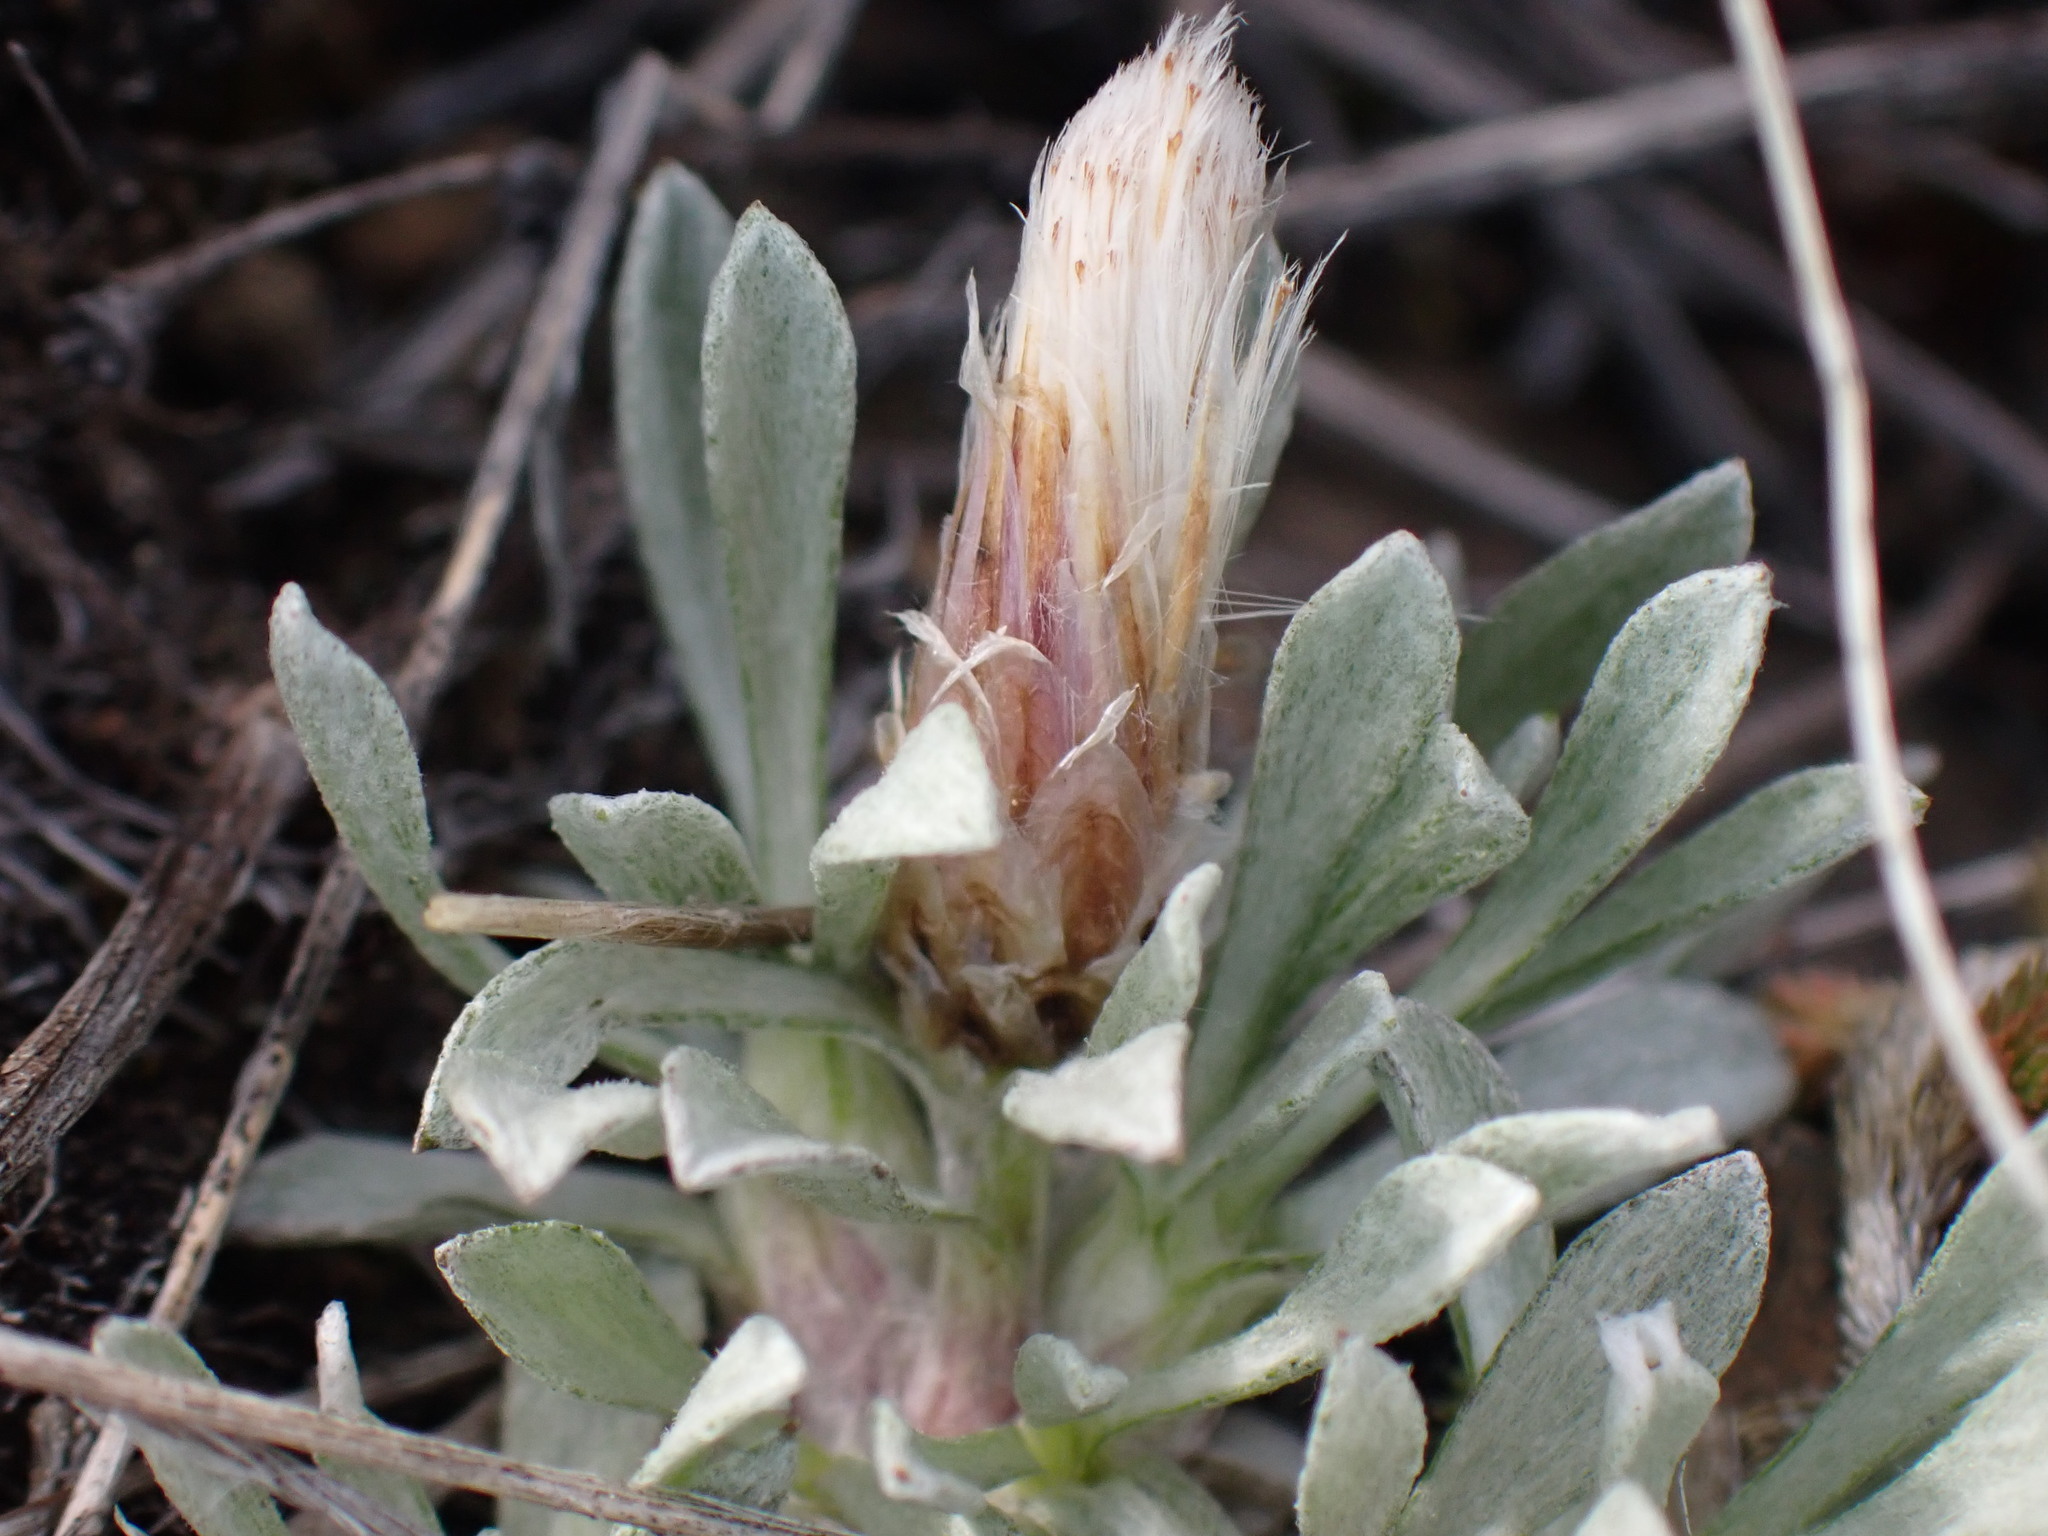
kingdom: Plantae
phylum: Tracheophyta
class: Magnoliopsida
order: Asterales
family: Asteraceae
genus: Antennaria
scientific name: Antennaria dimorpha
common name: Cushion pussytoes
